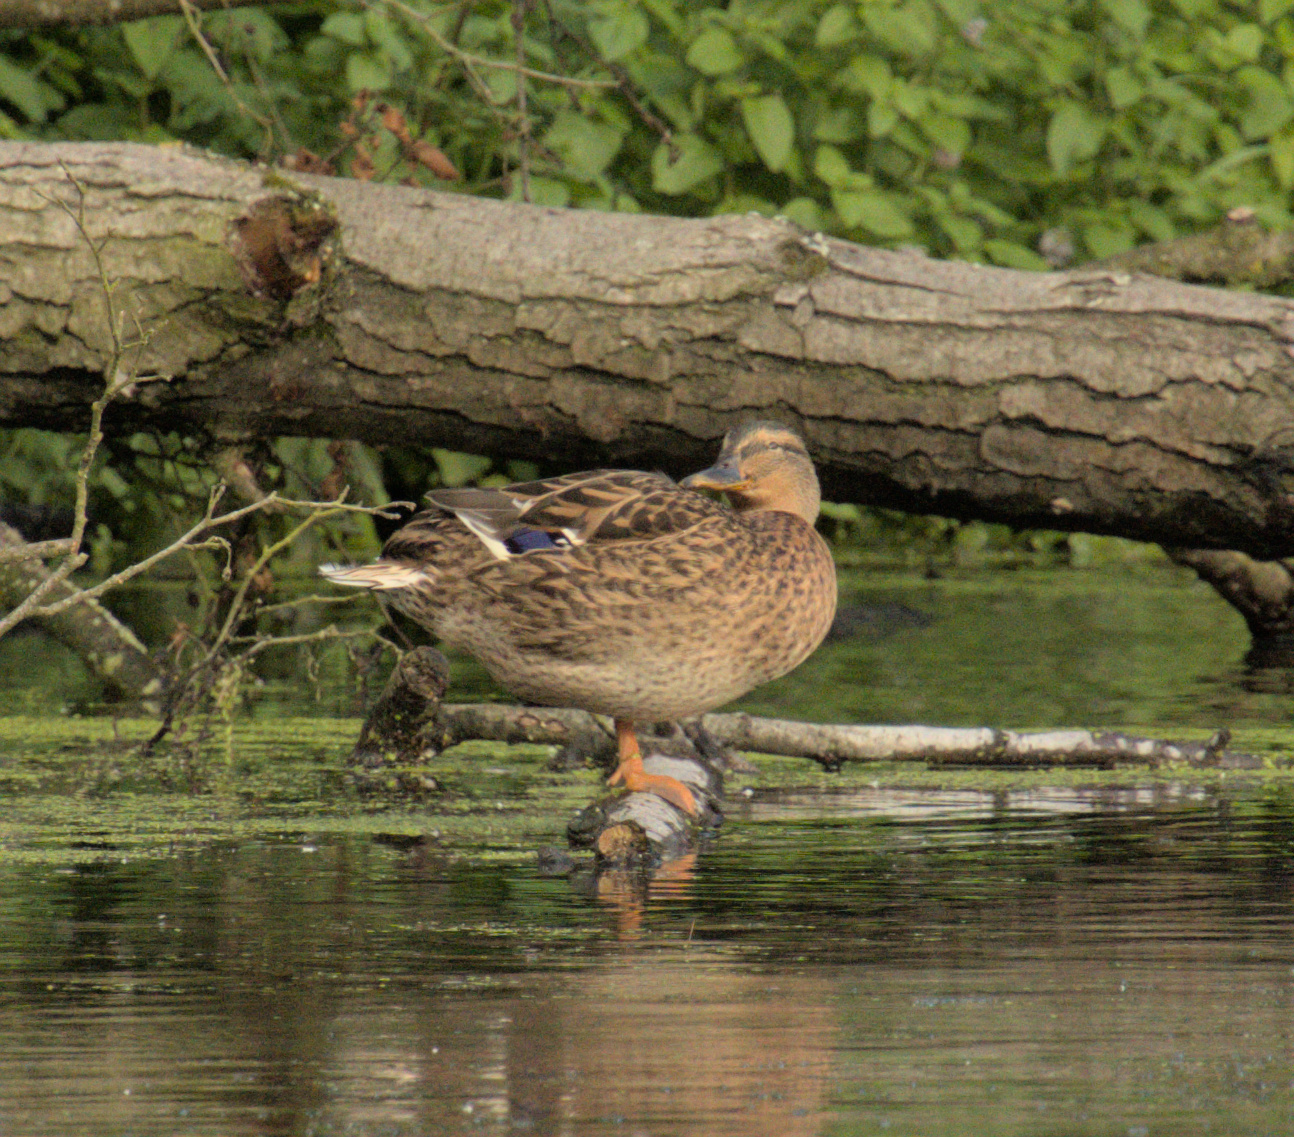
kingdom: Animalia
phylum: Chordata
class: Aves
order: Anseriformes
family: Anatidae
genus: Anas
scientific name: Anas platyrhynchos
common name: Mallard
